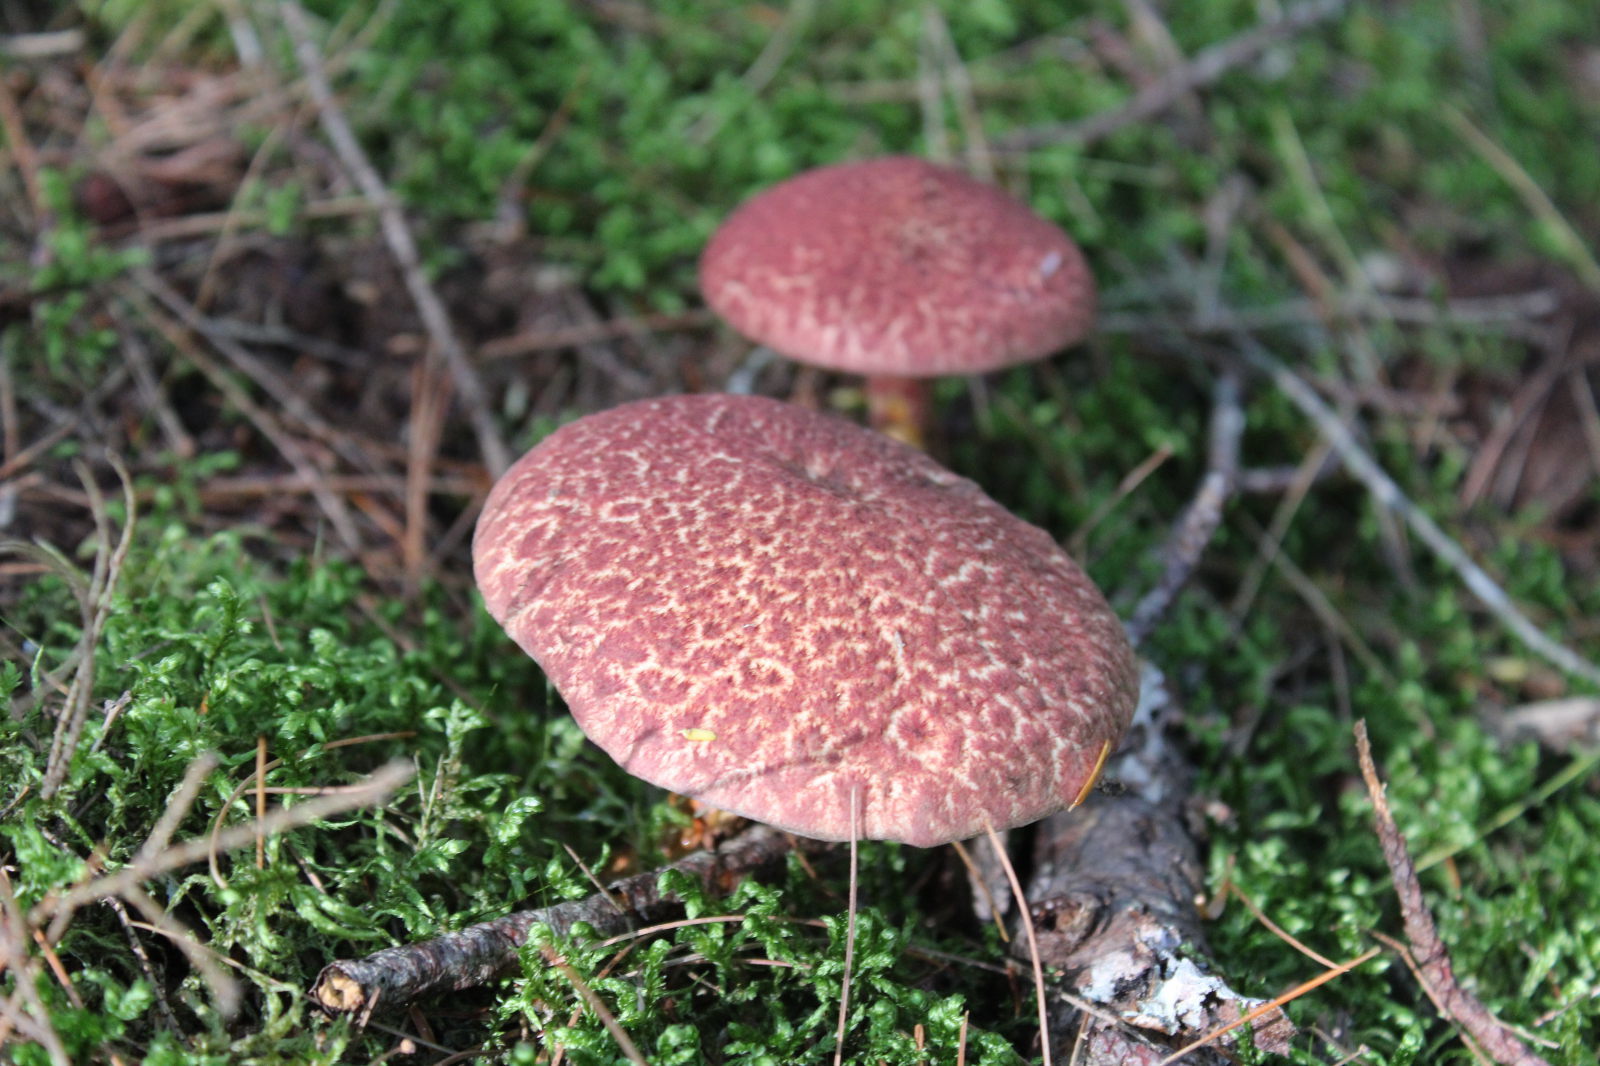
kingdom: Fungi
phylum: Basidiomycota
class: Agaricomycetes
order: Boletales
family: Suillaceae
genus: Suillus
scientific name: Suillus spraguei
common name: Painted suillus
